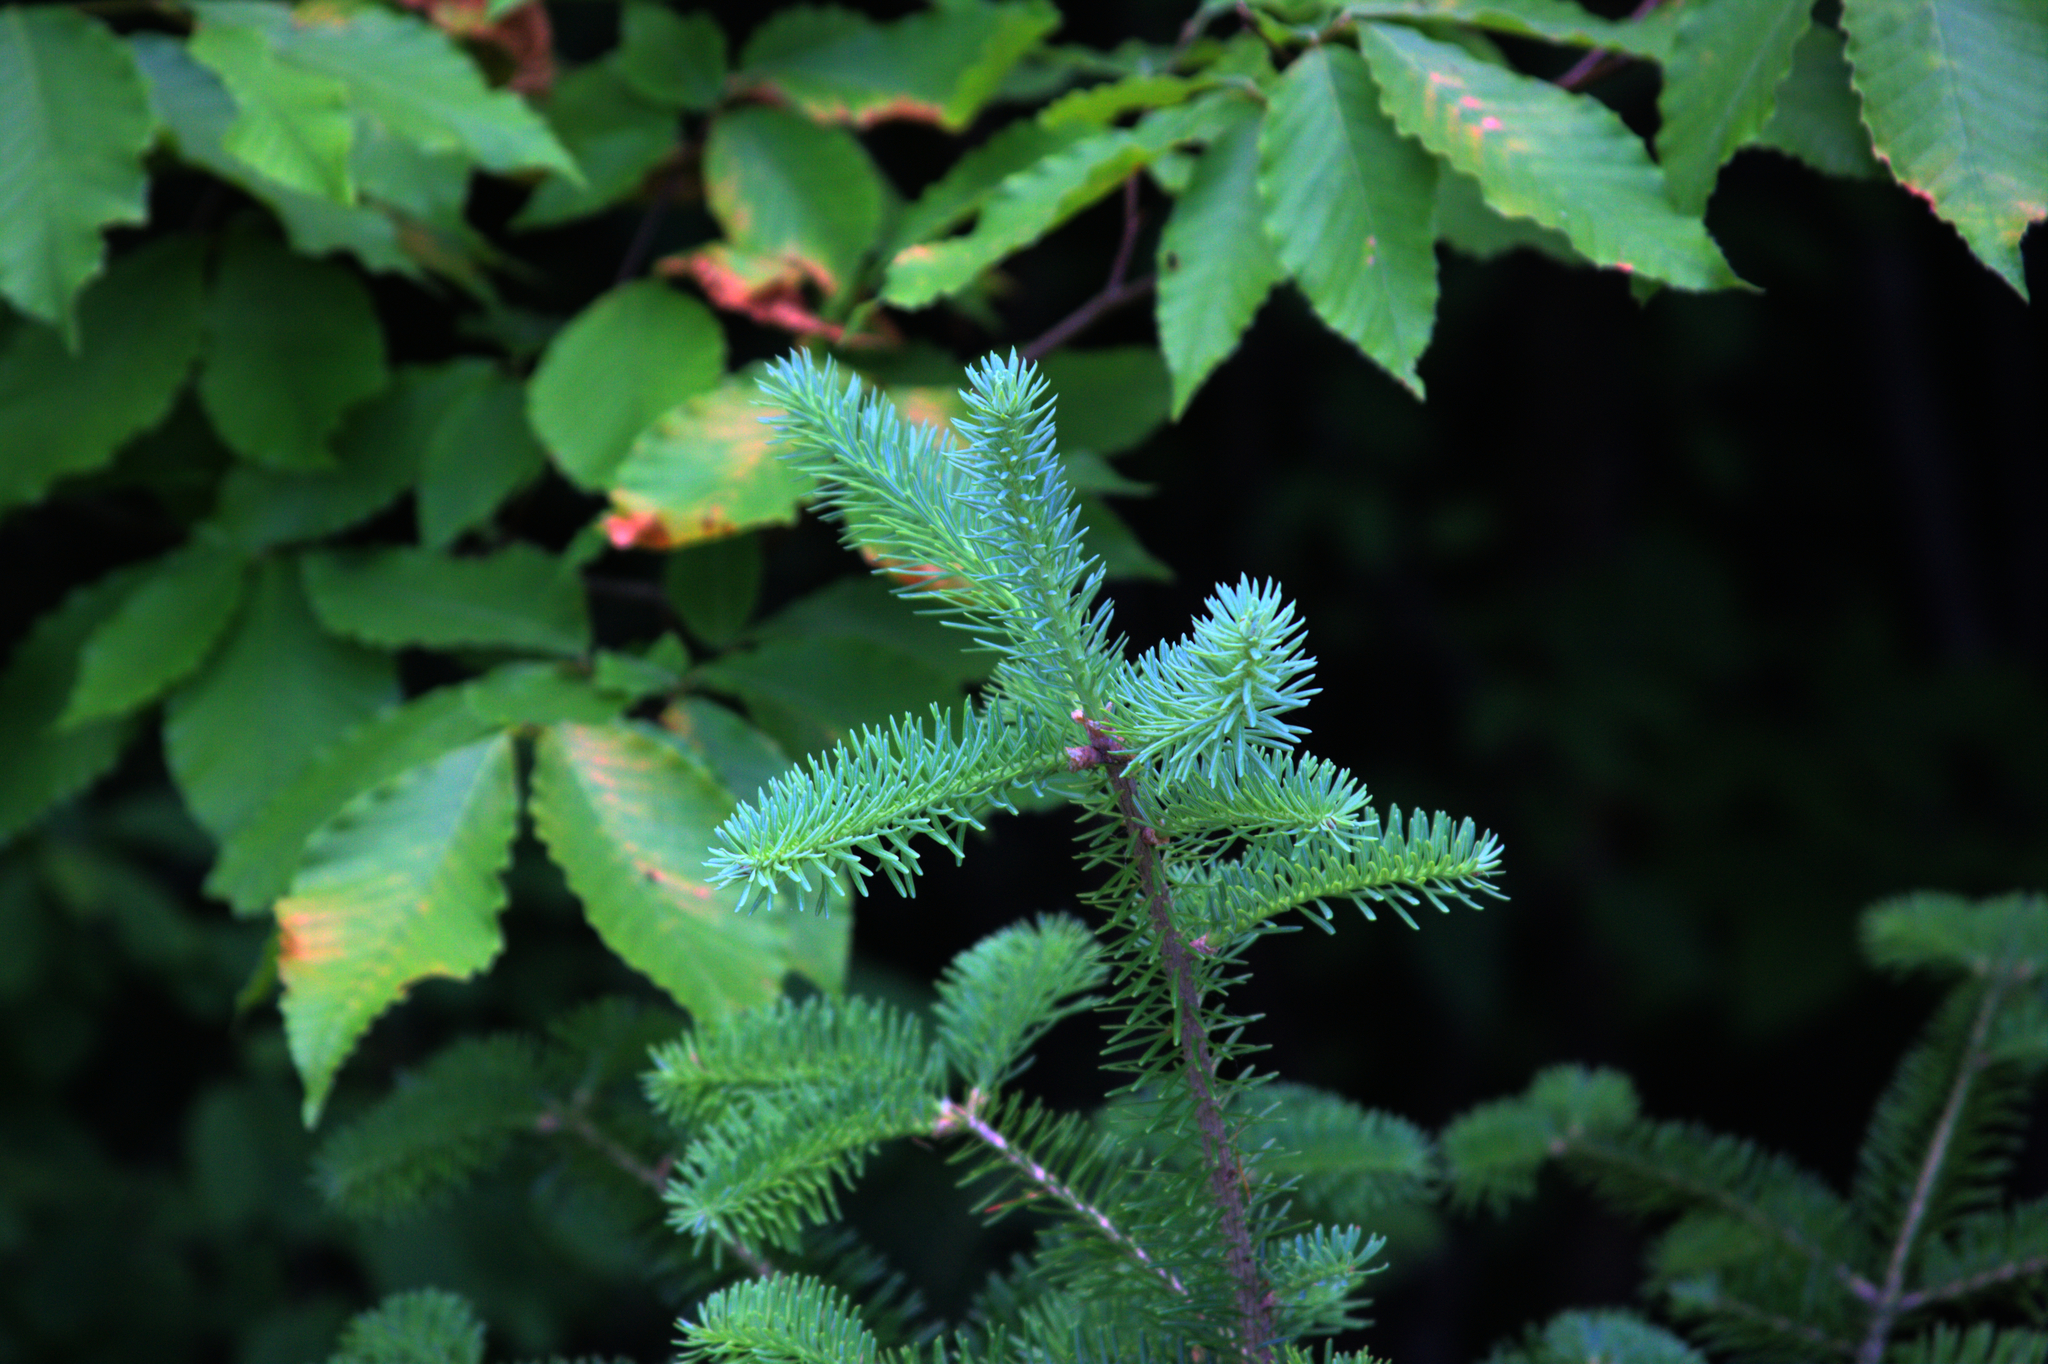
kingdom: Plantae
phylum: Tracheophyta
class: Pinopsida
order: Pinales
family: Pinaceae
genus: Abies
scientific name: Abies balsamea
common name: Balsam fir
